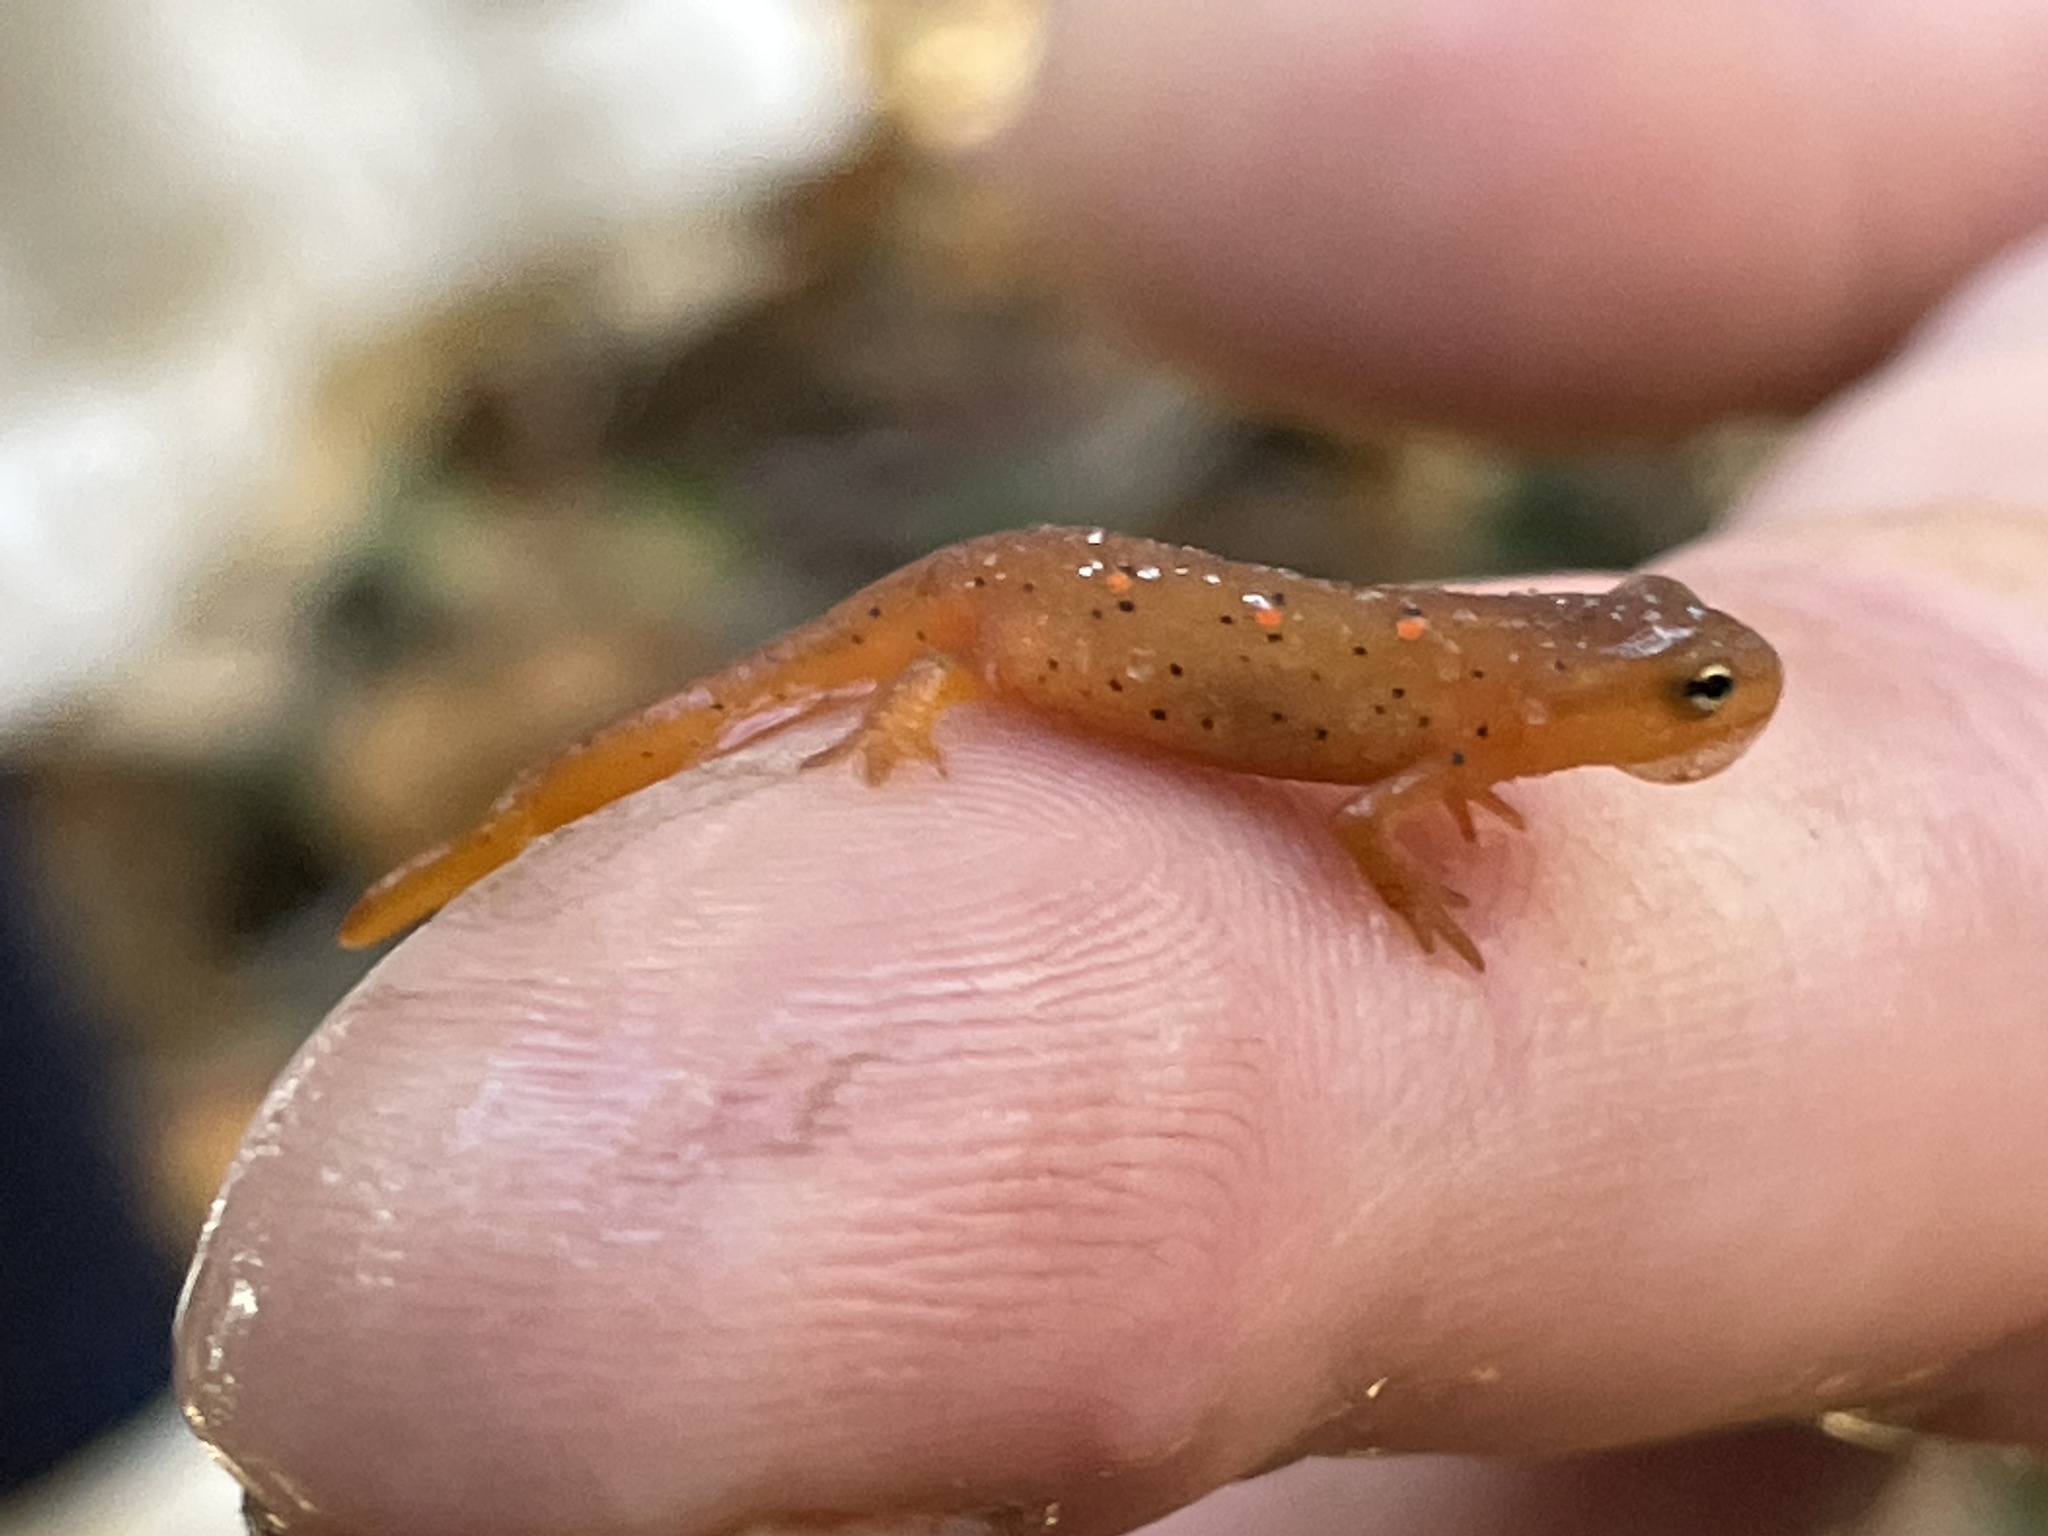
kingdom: Animalia
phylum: Chordata
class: Amphibia
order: Caudata
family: Salamandridae
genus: Notophthalmus
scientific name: Notophthalmus viridescens
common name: Eastern newt
